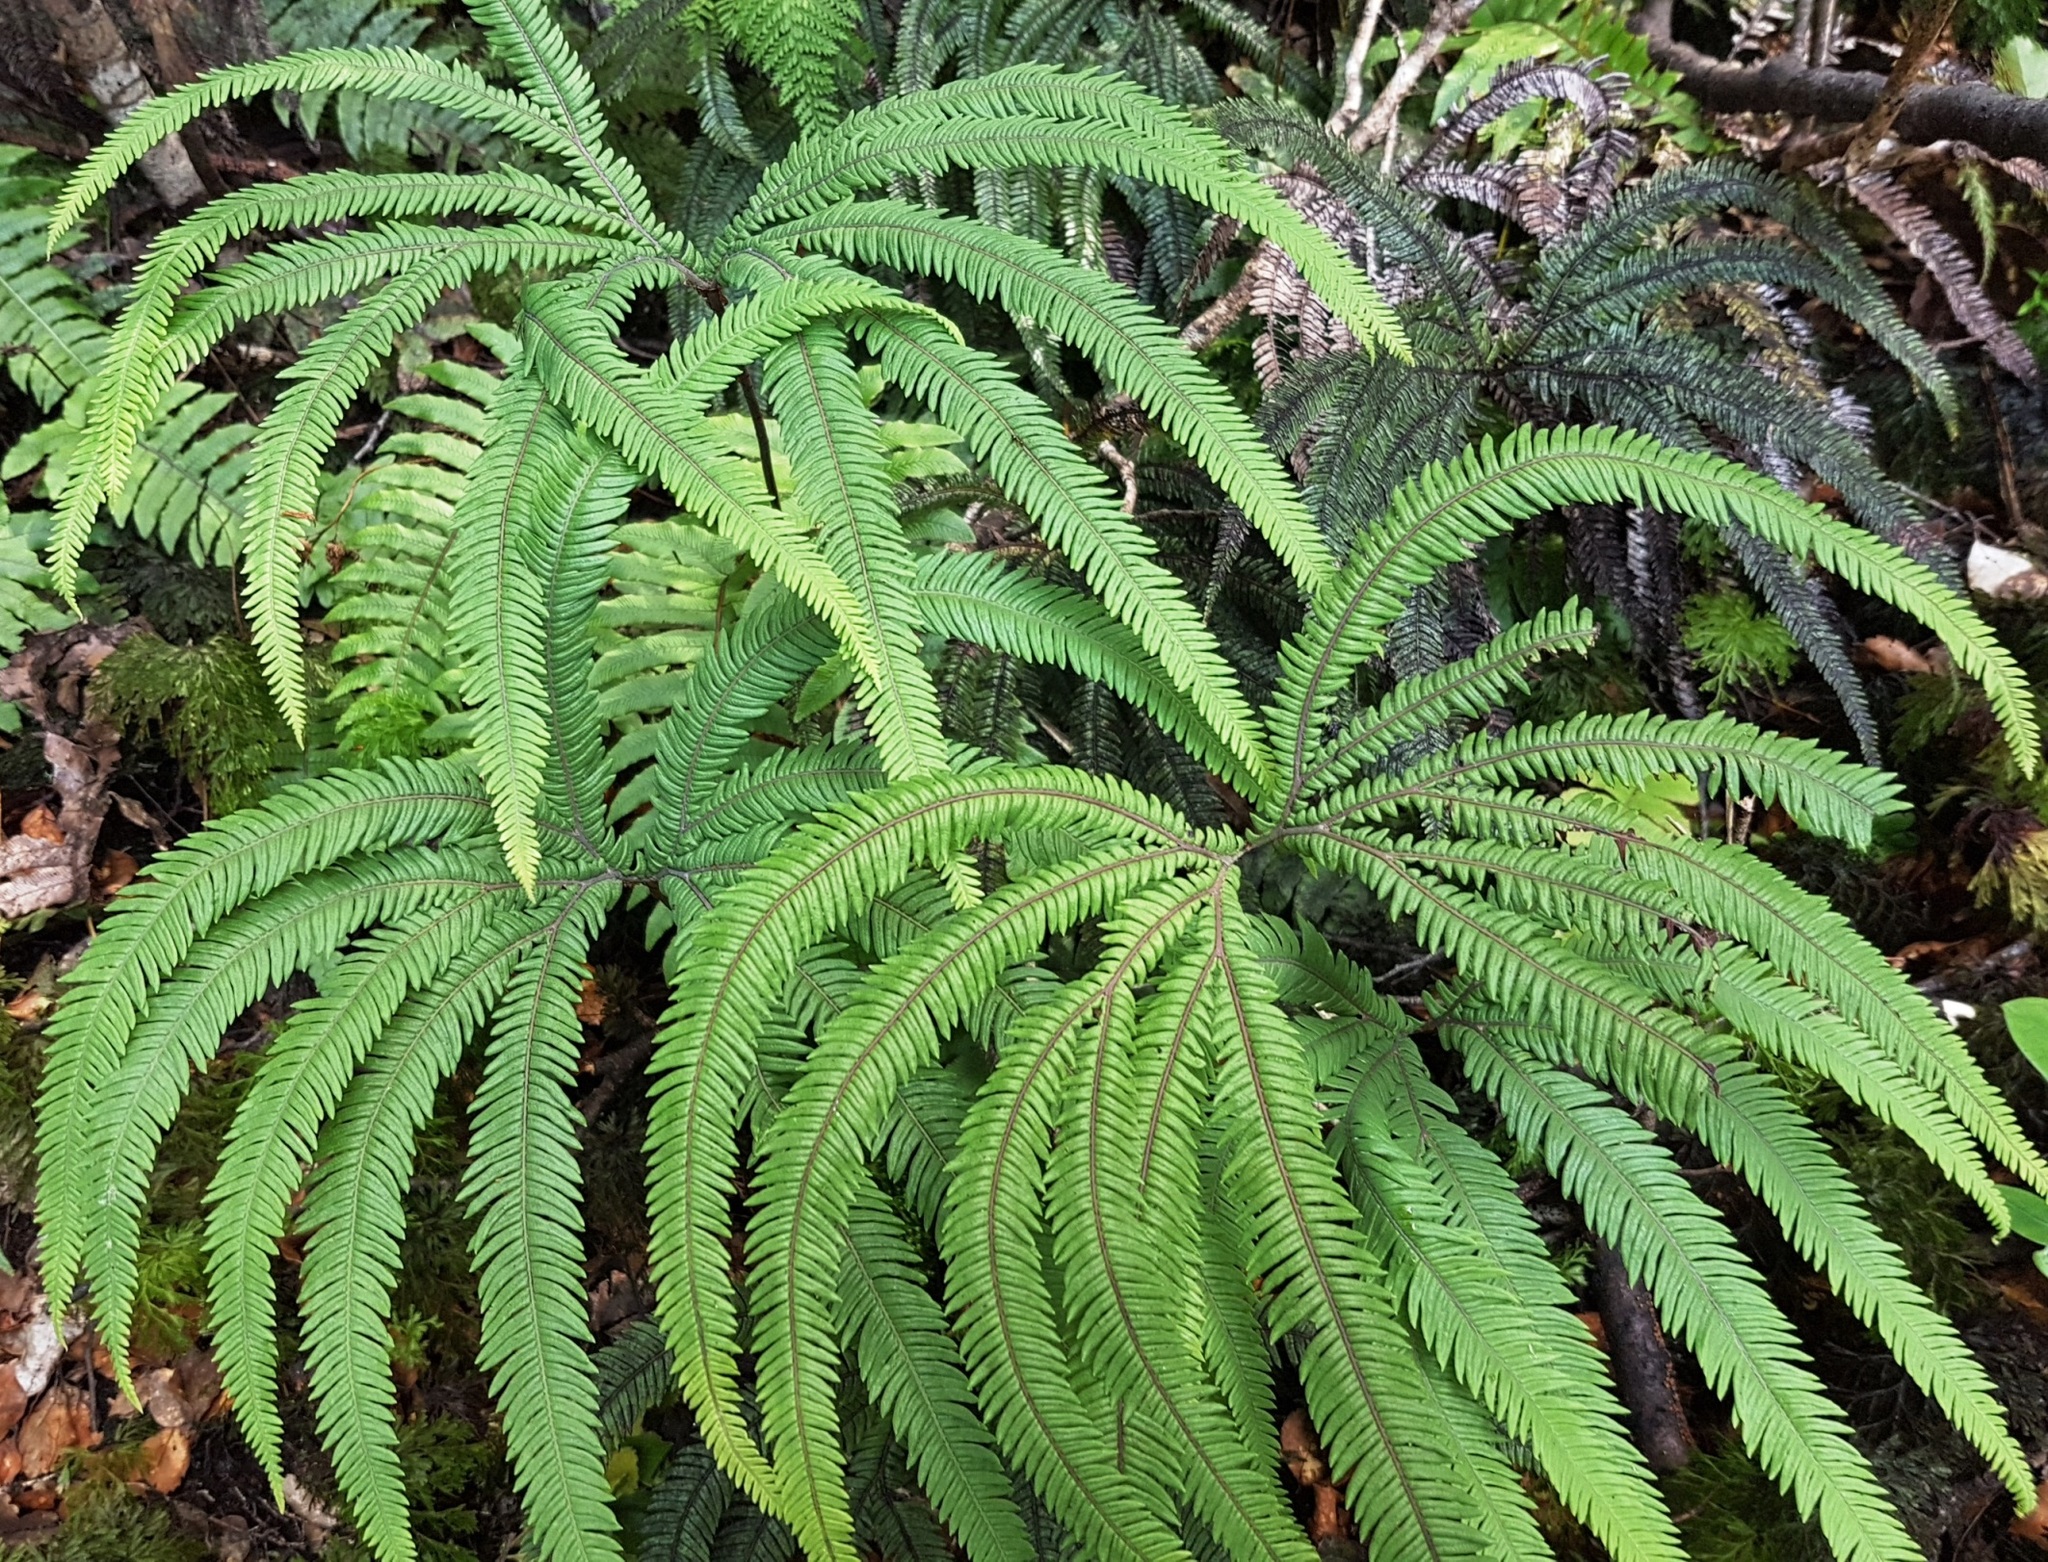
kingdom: Plantae
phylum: Tracheophyta
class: Polypodiopsida
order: Gleicheniales
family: Gleicheniaceae
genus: Sticherus
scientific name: Sticherus cunninghamii
